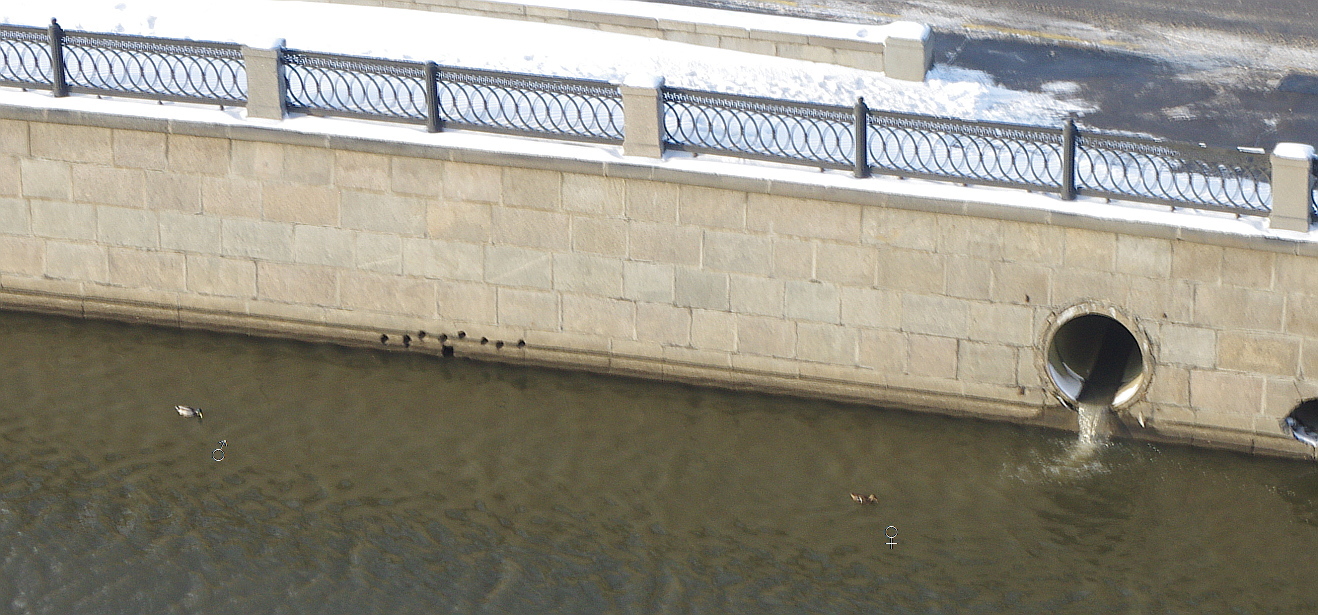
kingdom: Animalia
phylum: Chordata
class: Aves
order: Anseriformes
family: Anatidae
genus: Anas
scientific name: Anas platyrhynchos
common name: Mallard
